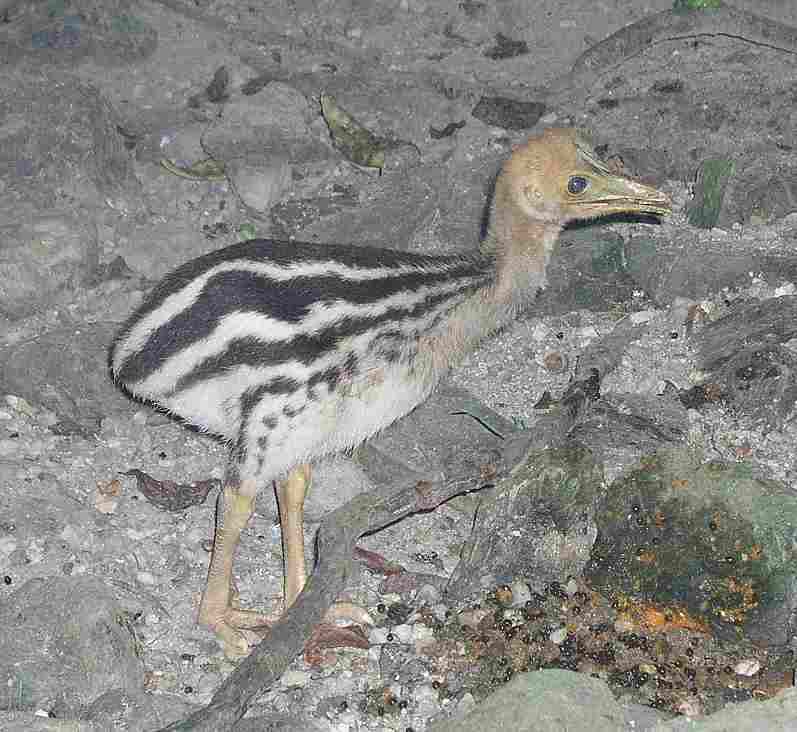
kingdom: Animalia
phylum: Chordata
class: Aves
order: Casuariiformes
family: Casuariidae
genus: Casuarius
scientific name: Casuarius casuarius
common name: Southern cassowary
